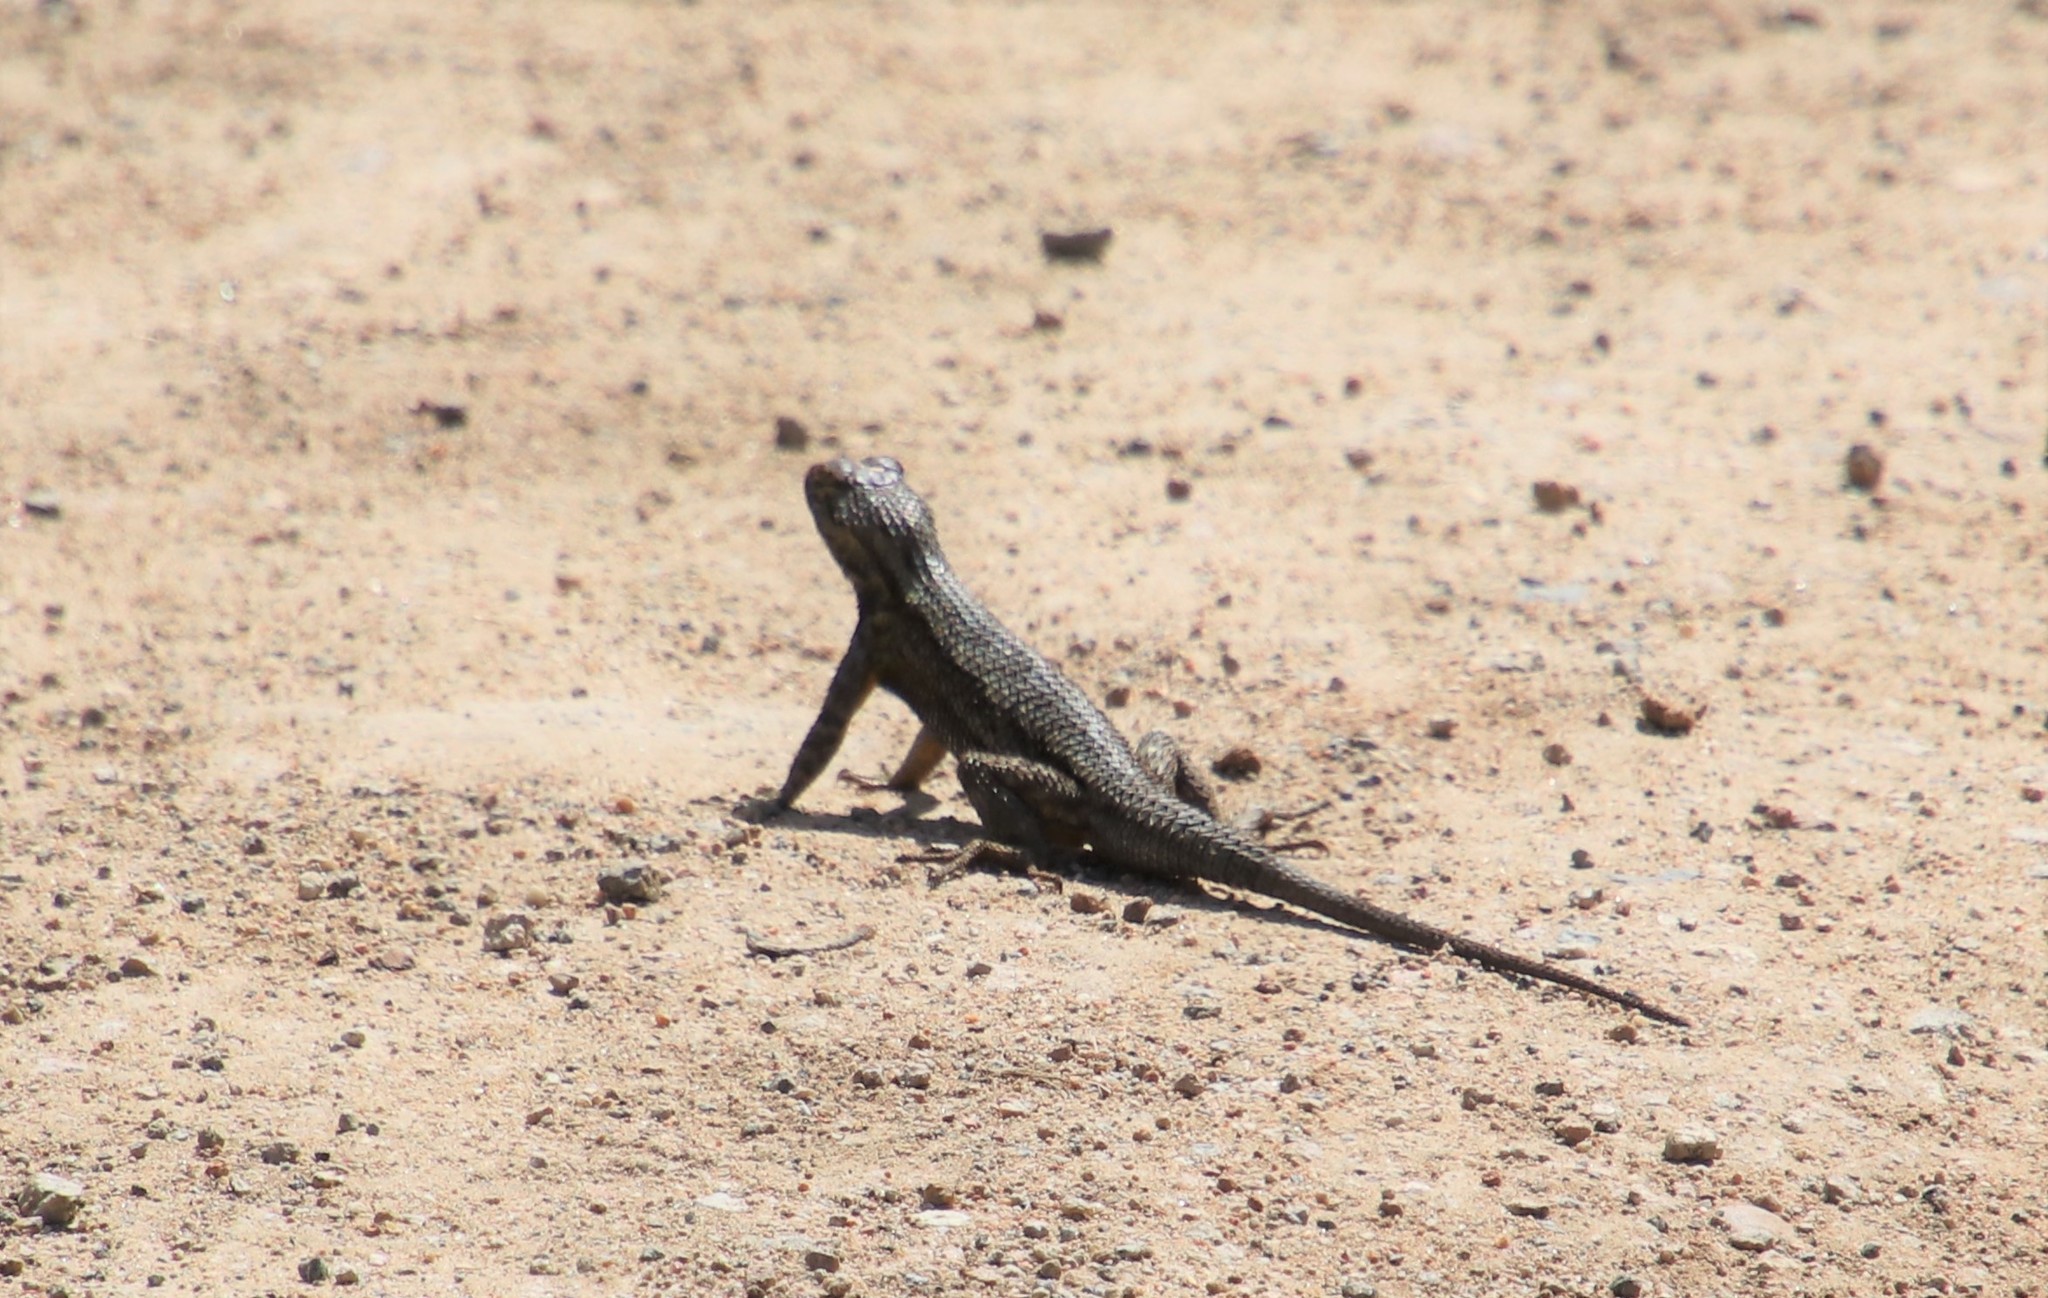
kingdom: Animalia
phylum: Chordata
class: Squamata
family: Phrynosomatidae
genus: Sceloporus
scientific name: Sceloporus occidentalis
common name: Western fence lizard
